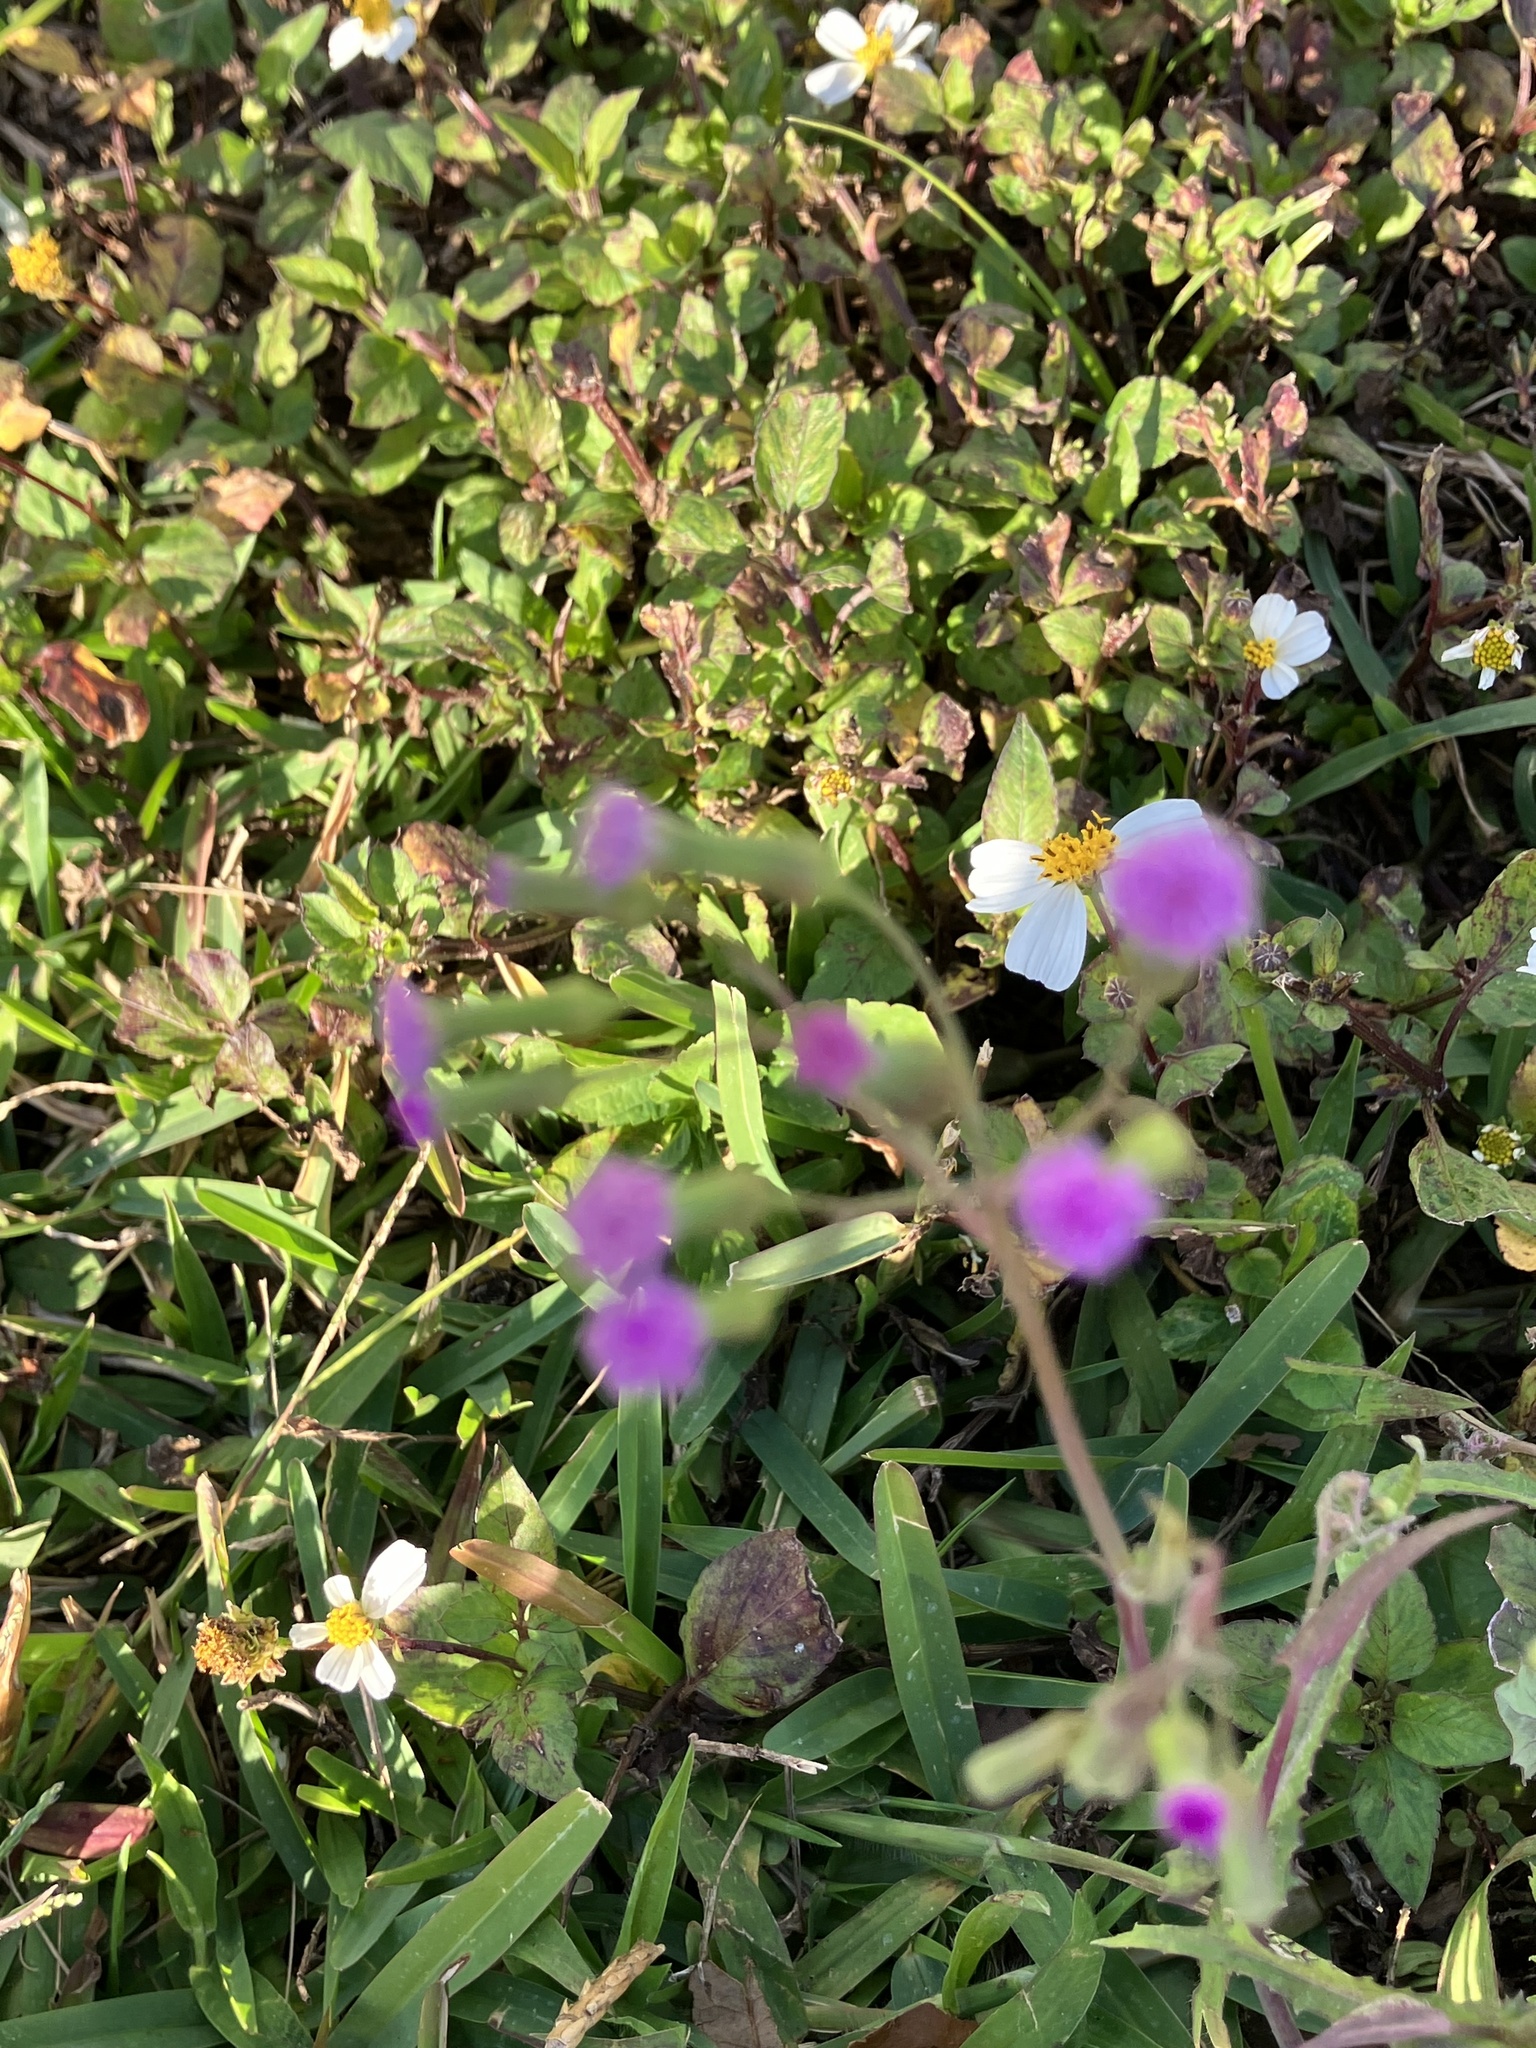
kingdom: Plantae
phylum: Tracheophyta
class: Magnoliopsida
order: Asterales
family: Asteraceae
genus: Emilia
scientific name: Emilia sonchifolia
